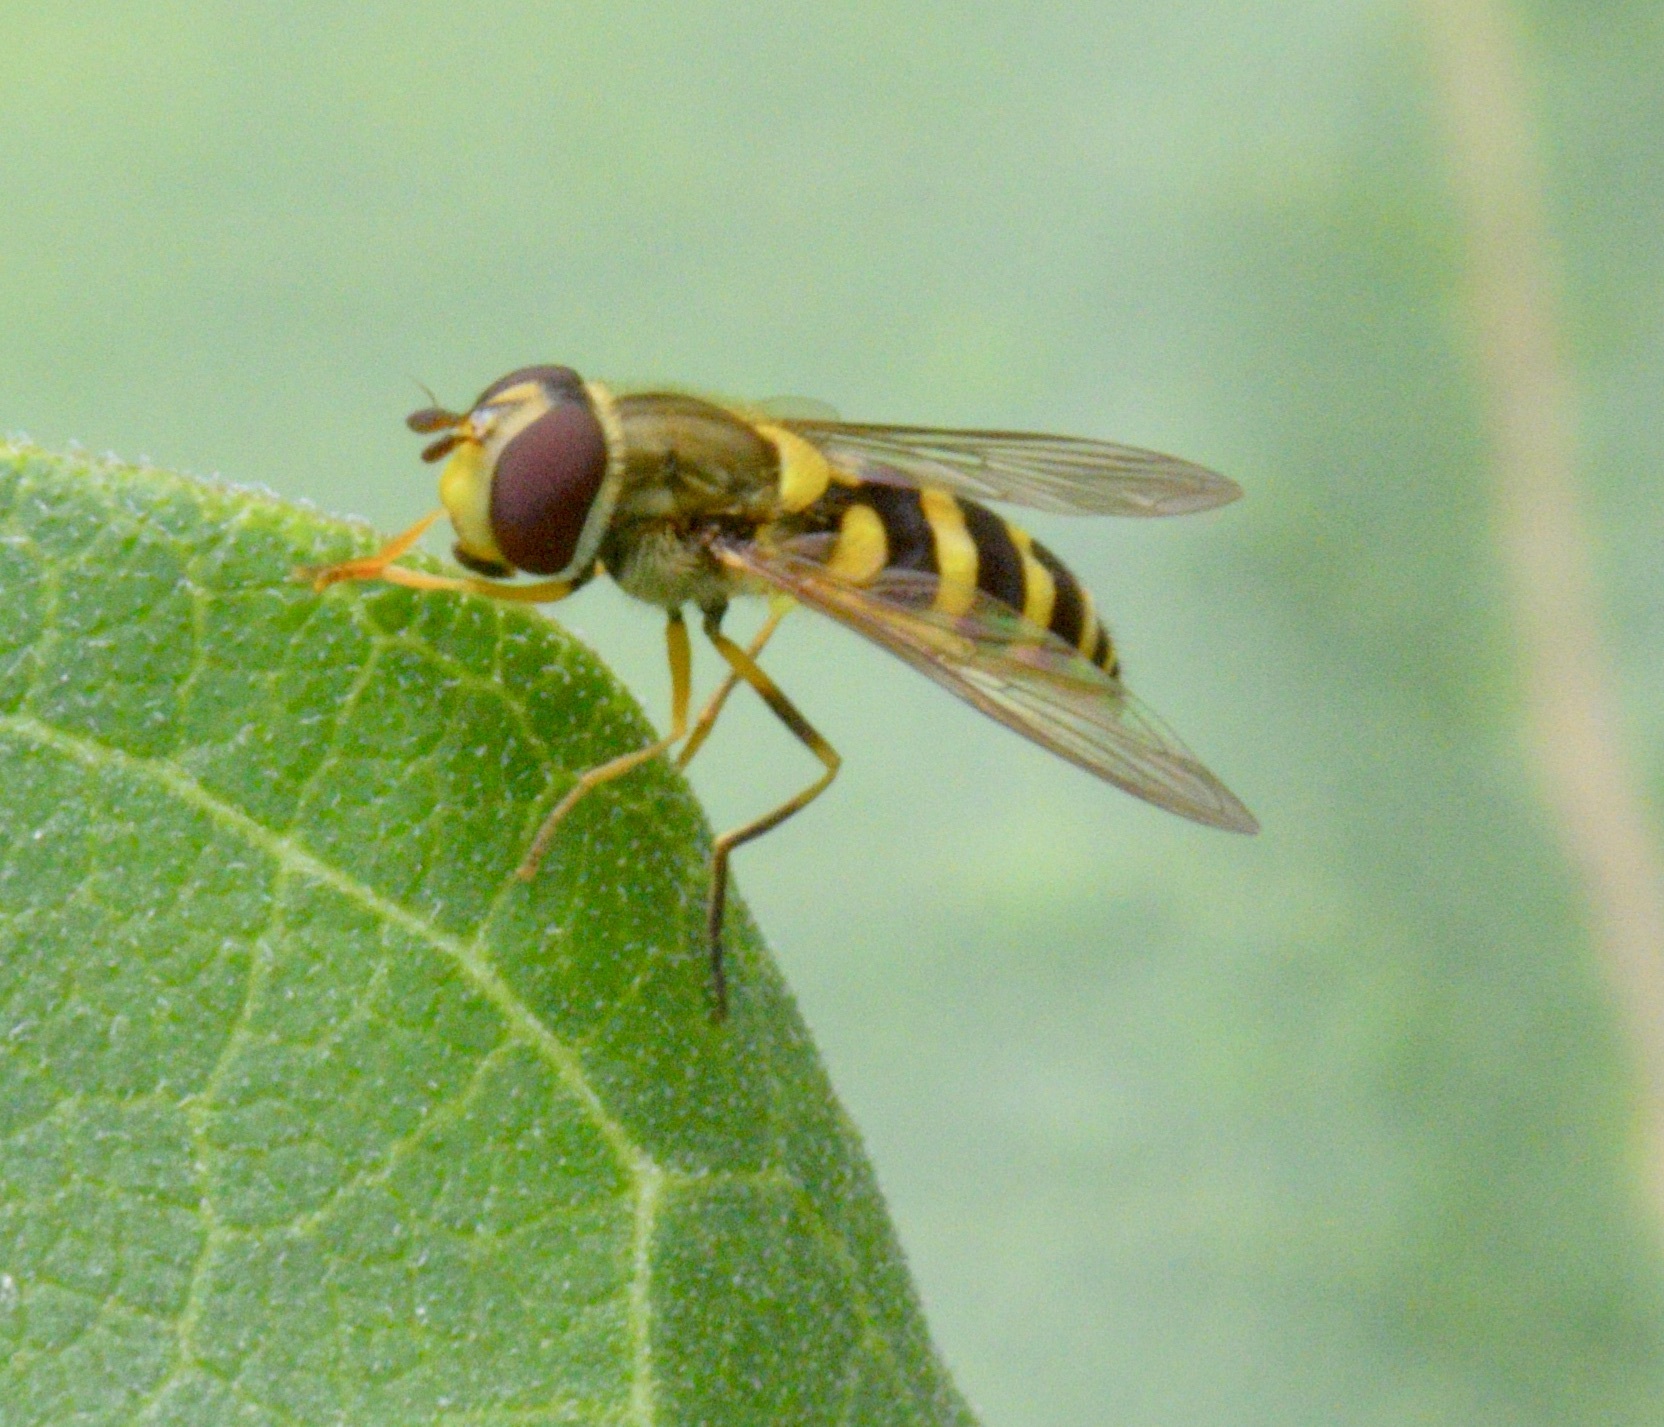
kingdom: Animalia
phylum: Arthropoda
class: Insecta
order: Diptera
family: Syrphidae
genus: Syrphus
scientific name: Syrphus rectus
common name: Yellow-legged flower fly
